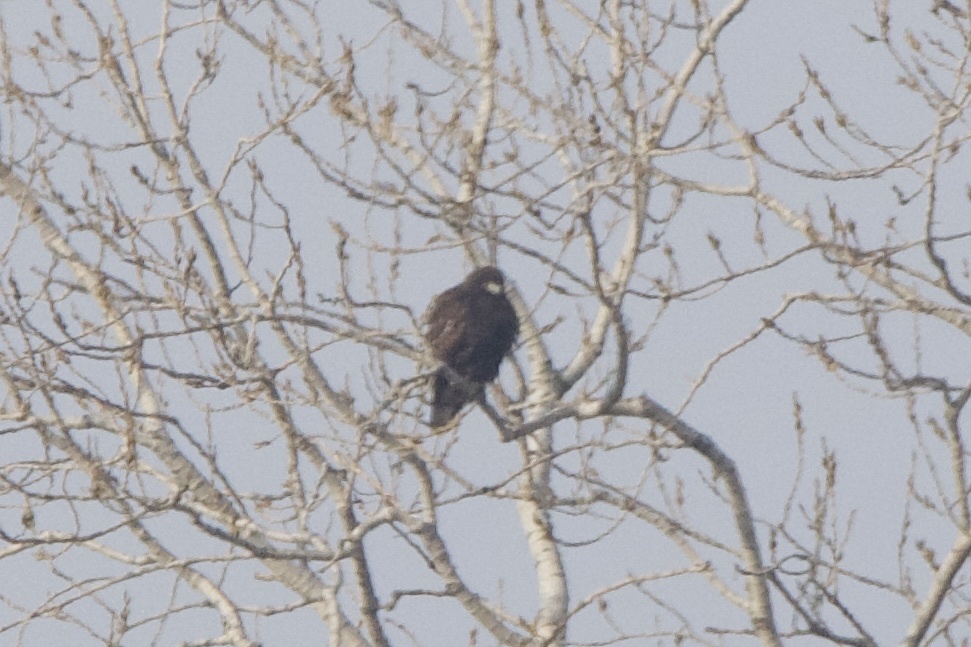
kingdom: Animalia
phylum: Chordata
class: Aves
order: Accipitriformes
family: Accipitridae
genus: Buteo
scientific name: Buteo jamaicensis
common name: Red-tailed hawk
